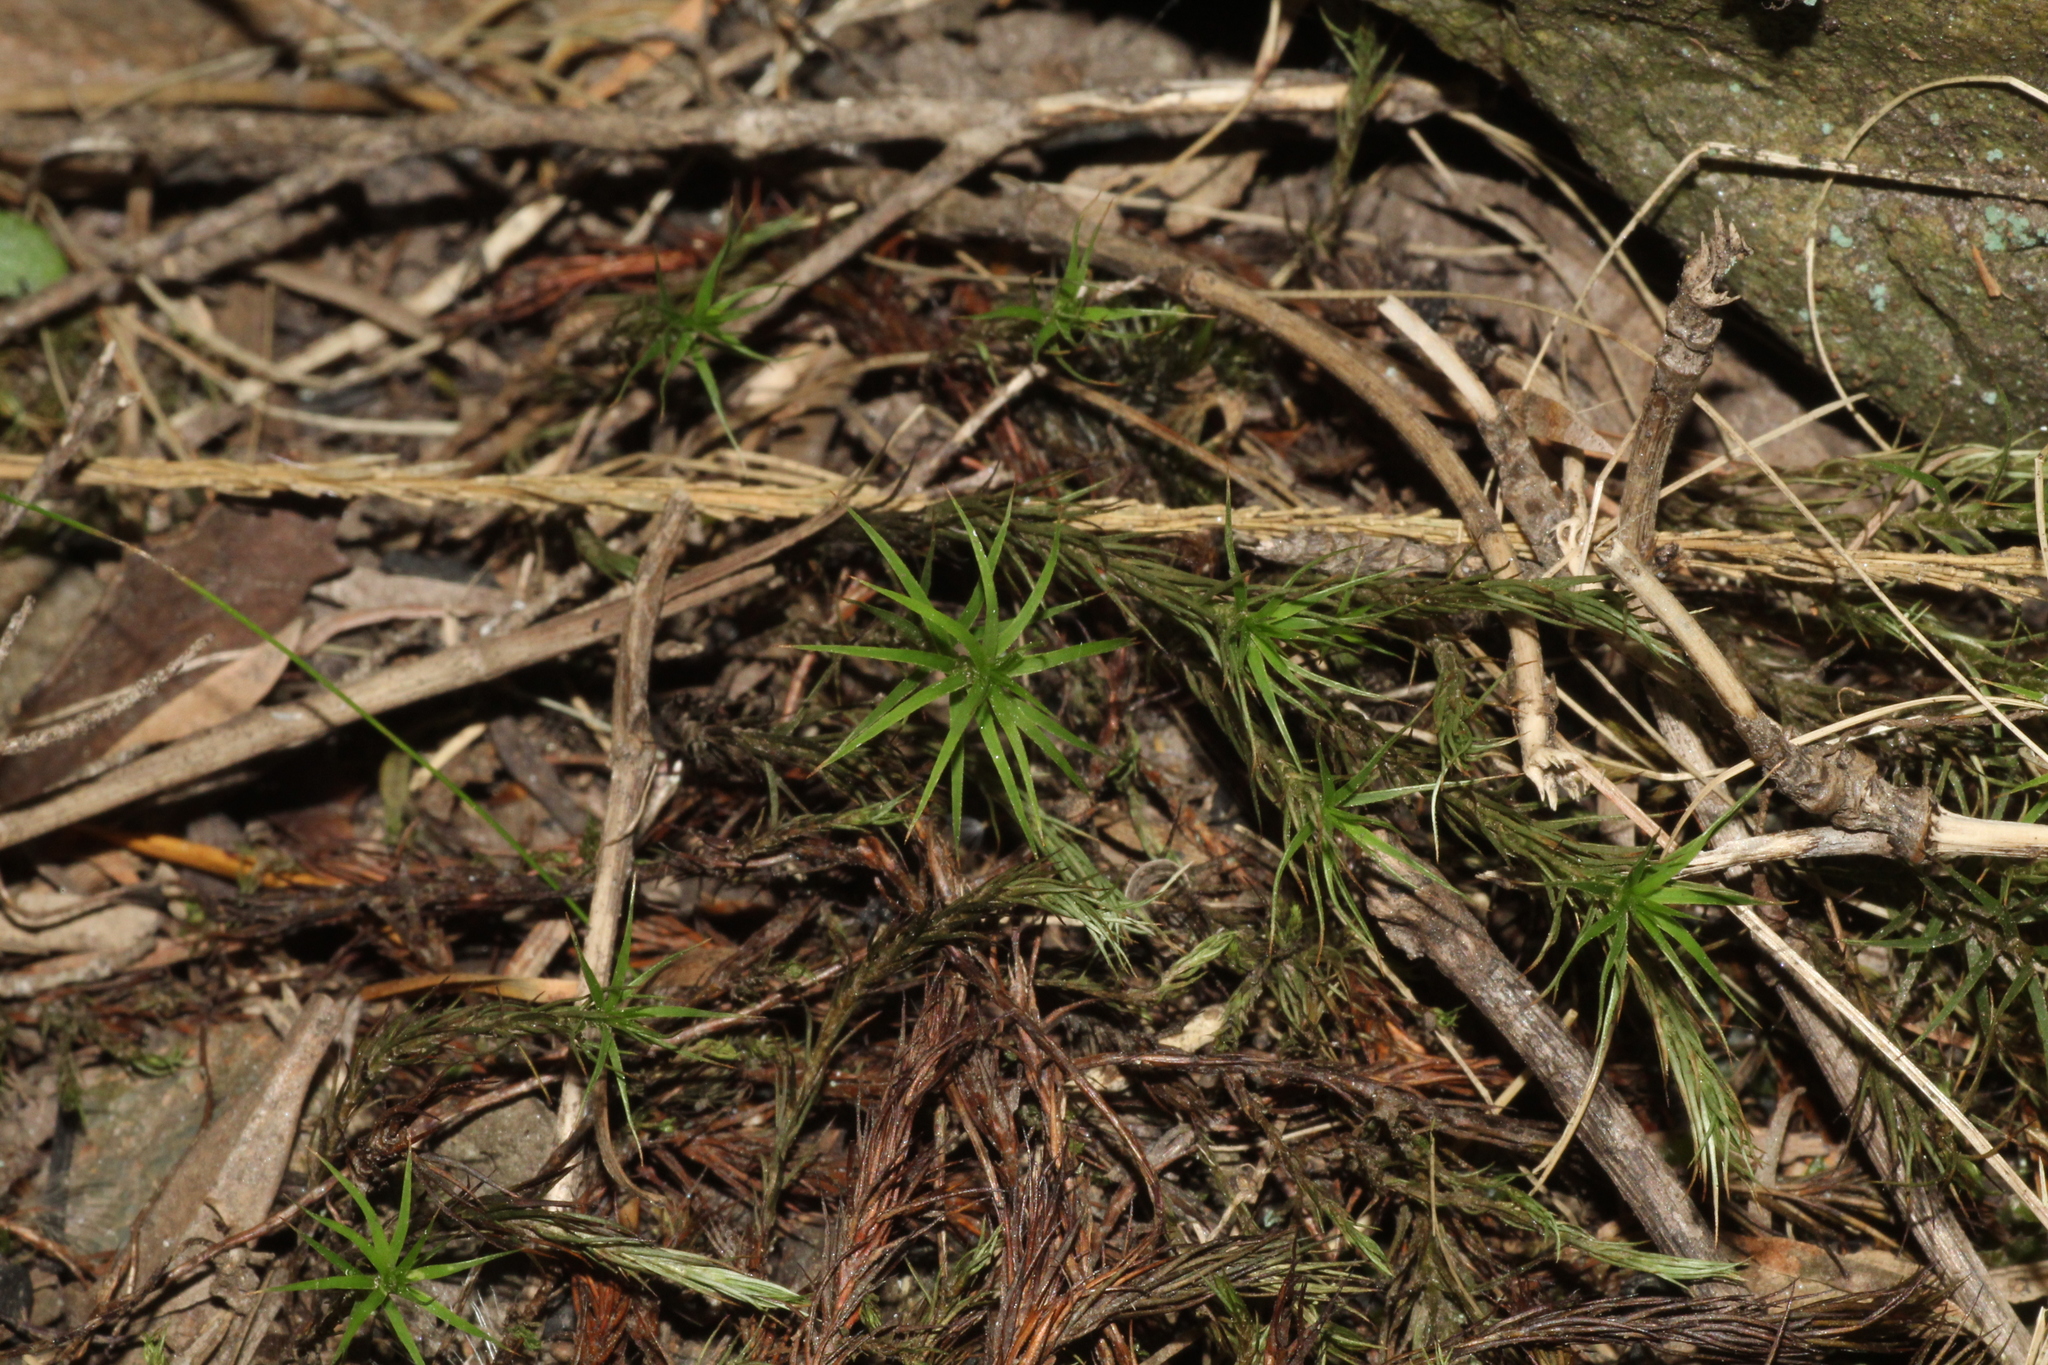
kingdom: Plantae
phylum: Bryophyta
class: Polytrichopsida
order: Polytrichales
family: Polytrichaceae
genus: Polytrichastrum
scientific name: Polytrichastrum alpinum
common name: Alpine haircap
